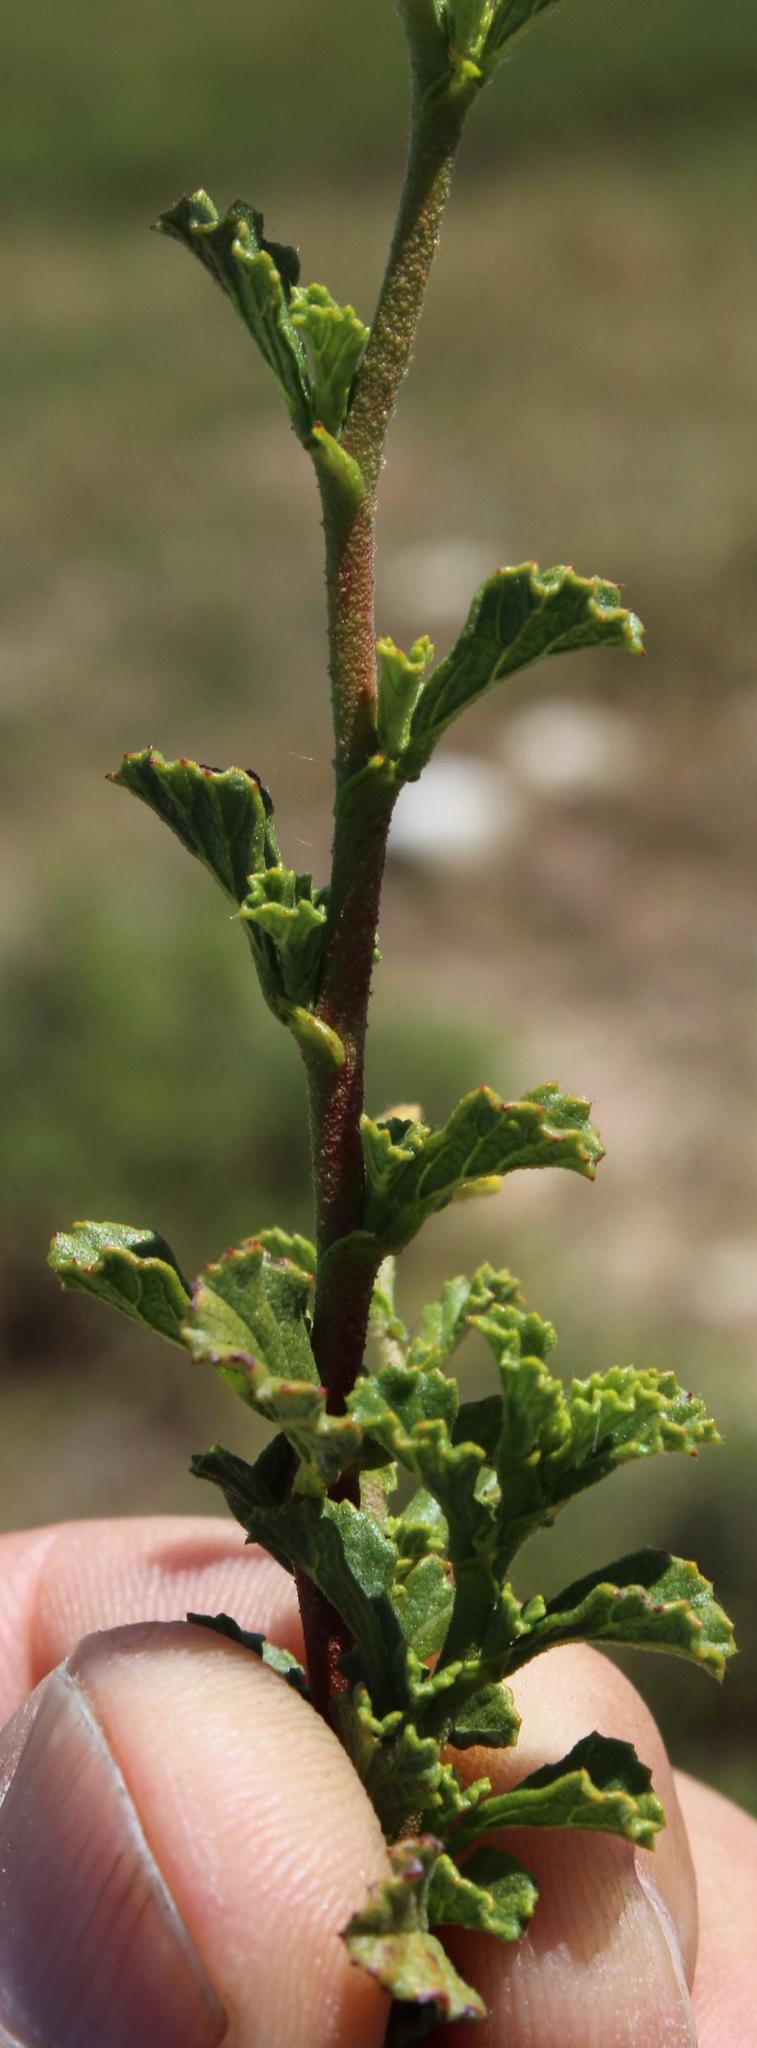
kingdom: Plantae
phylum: Tracheophyta
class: Magnoliopsida
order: Malvales
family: Malvaceae
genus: Hermannia
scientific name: Hermannia alnifolia
